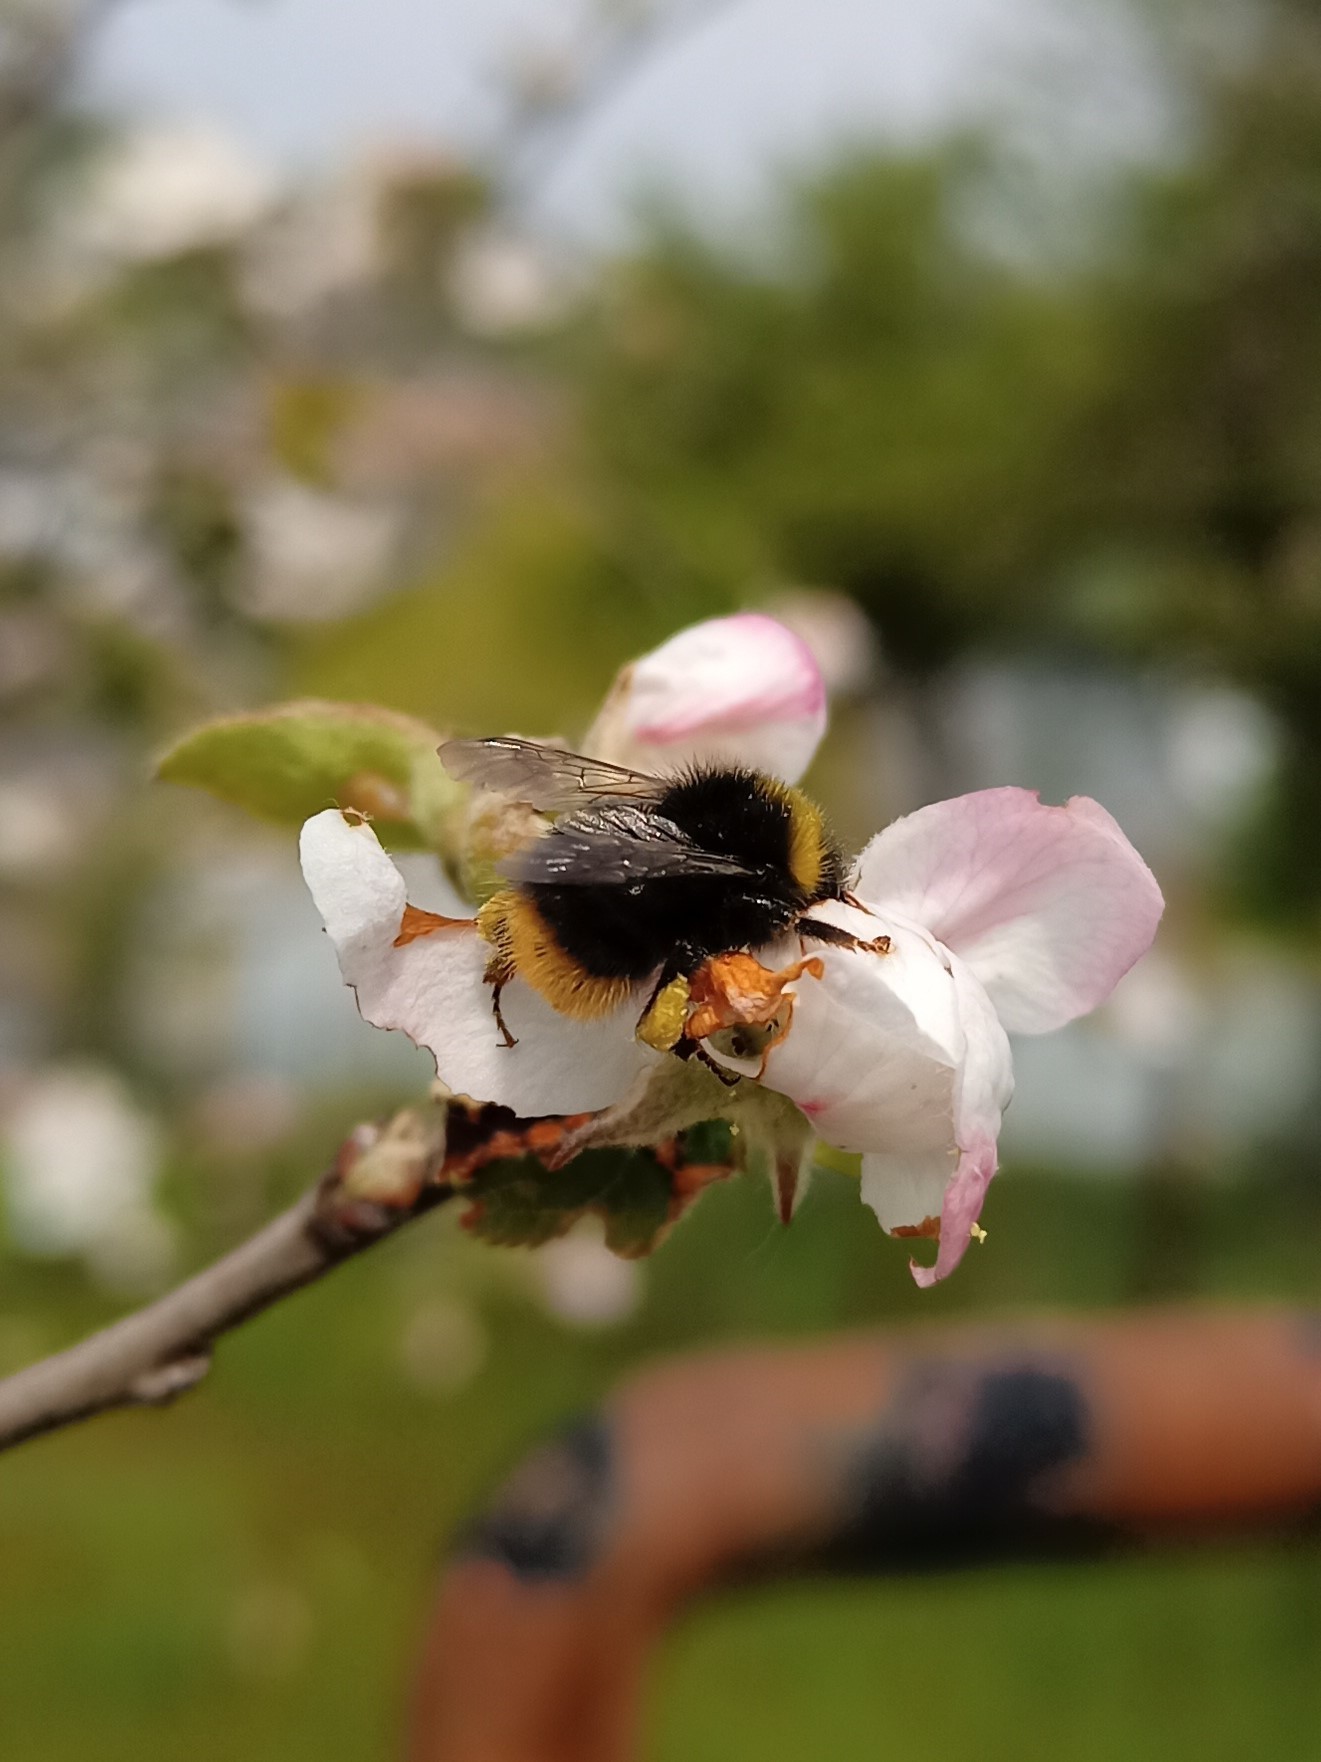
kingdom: Animalia
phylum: Arthropoda
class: Insecta
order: Hymenoptera
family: Apidae
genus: Bombus
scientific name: Bombus pratorum
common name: Early humble-bee
